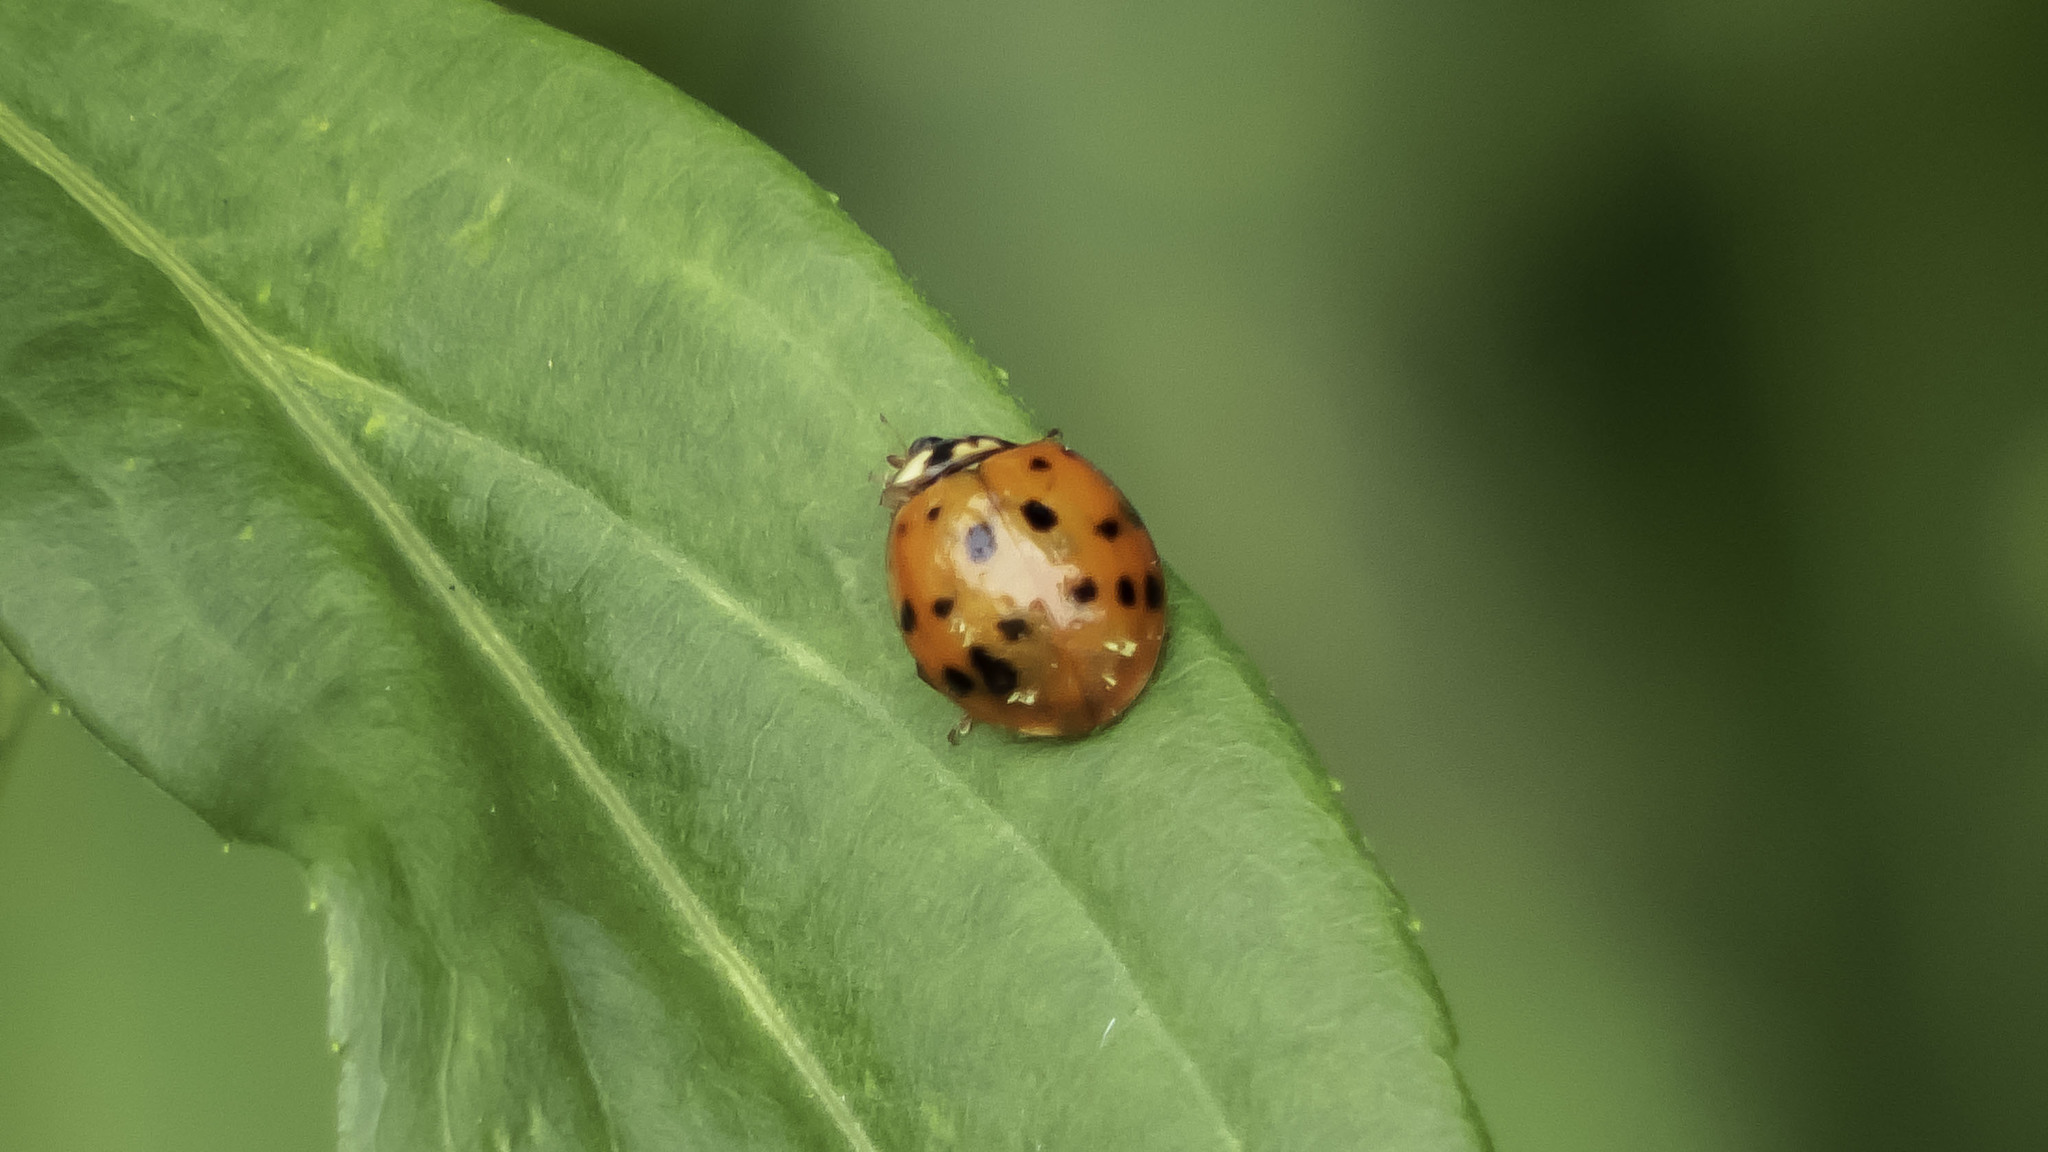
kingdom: Animalia
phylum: Arthropoda
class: Insecta
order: Coleoptera
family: Coccinellidae
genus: Harmonia
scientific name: Harmonia axyridis
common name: Harlequin ladybird
